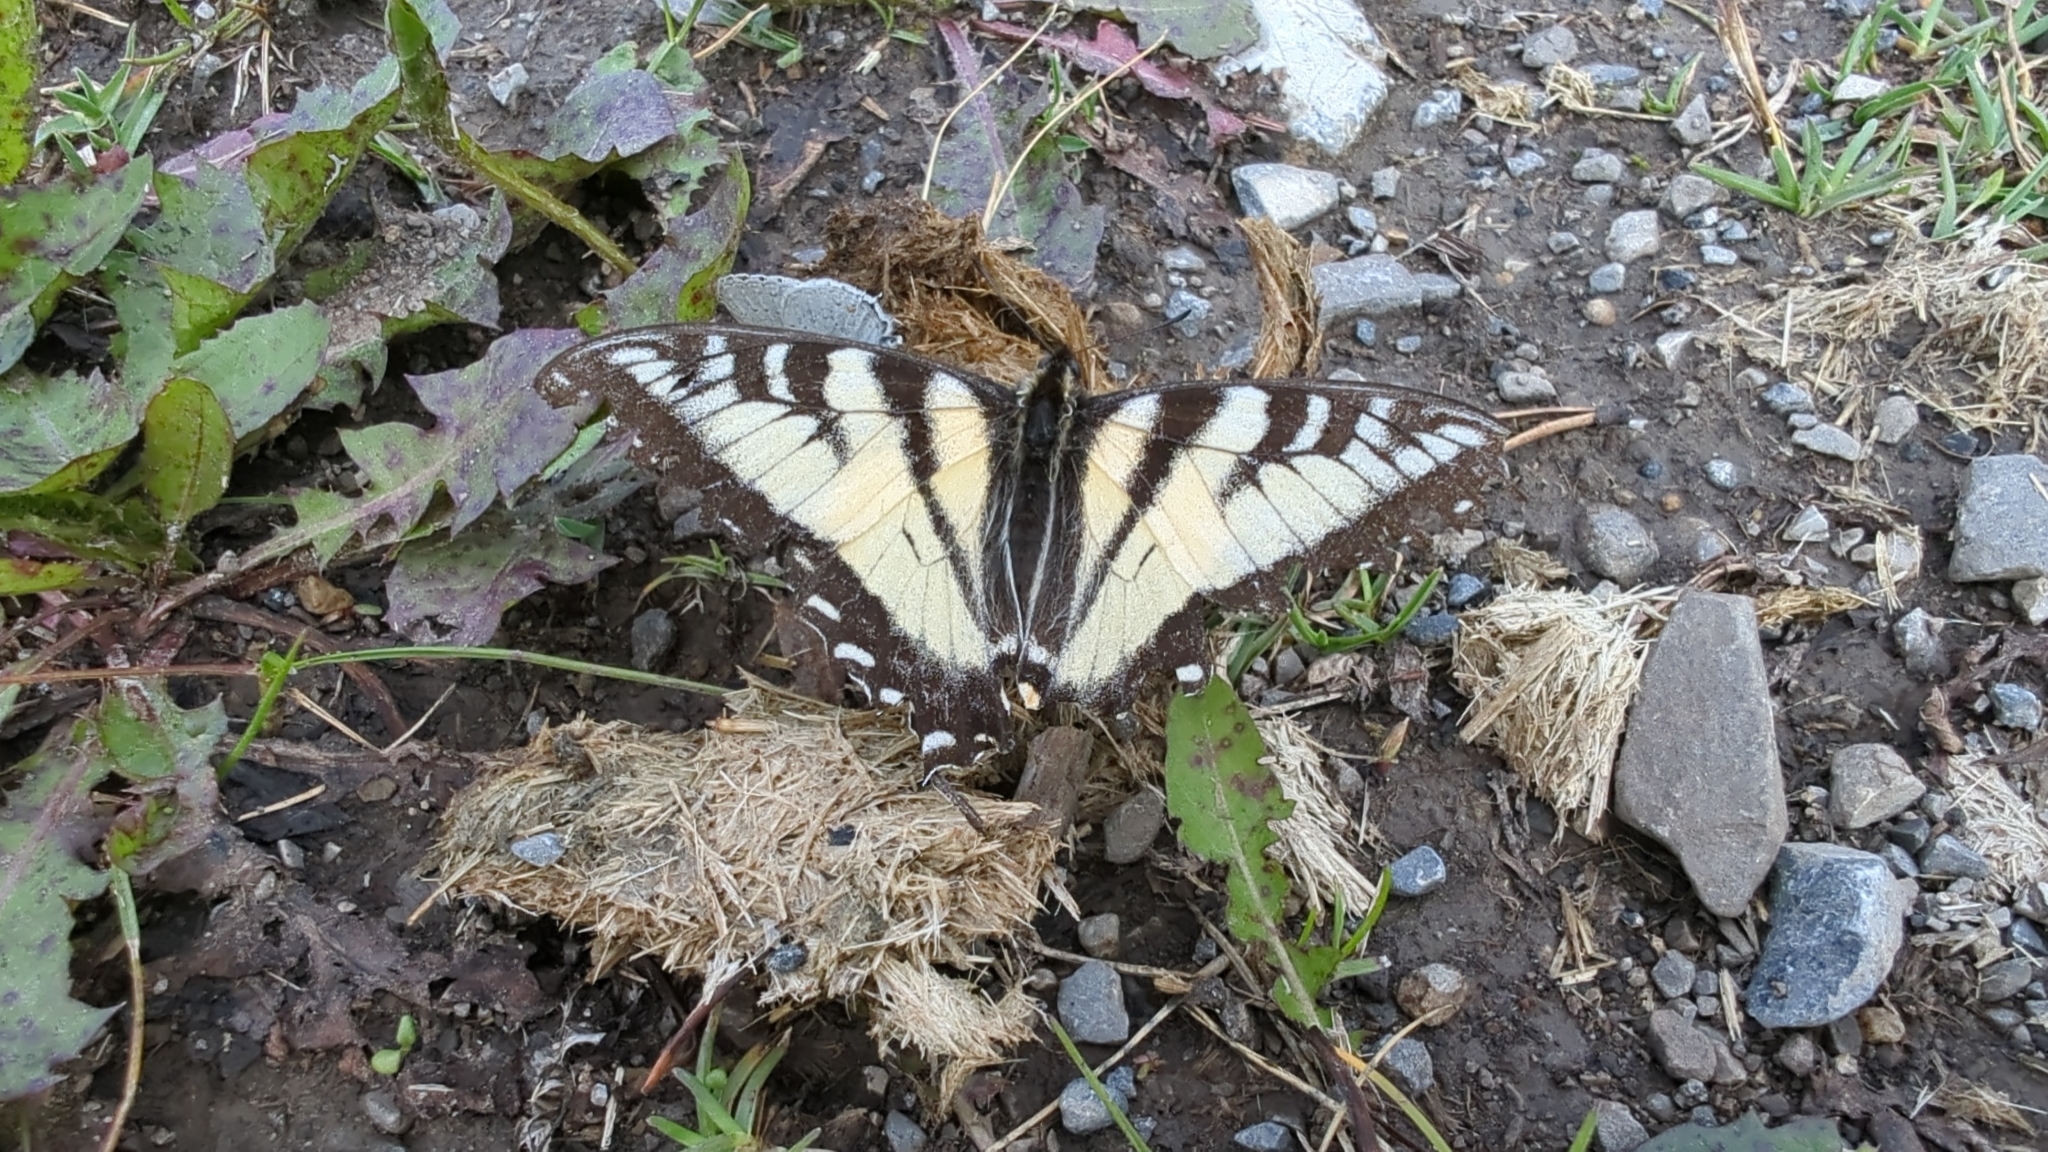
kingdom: Animalia
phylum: Arthropoda
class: Insecta
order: Lepidoptera
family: Papilionidae
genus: Papilio
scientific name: Papilio canadensis
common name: Canadian tiger swallowtail
